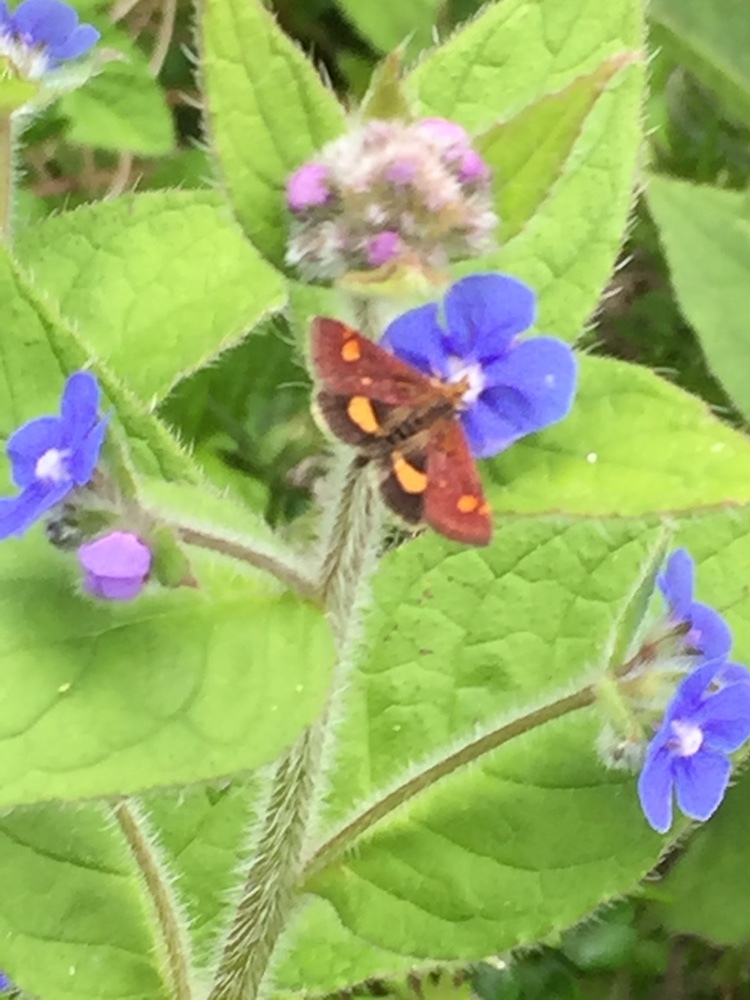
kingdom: Animalia
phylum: Arthropoda
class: Insecta
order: Lepidoptera
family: Crambidae
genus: Pyrausta
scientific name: Pyrausta aurata
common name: Small purple & gold
